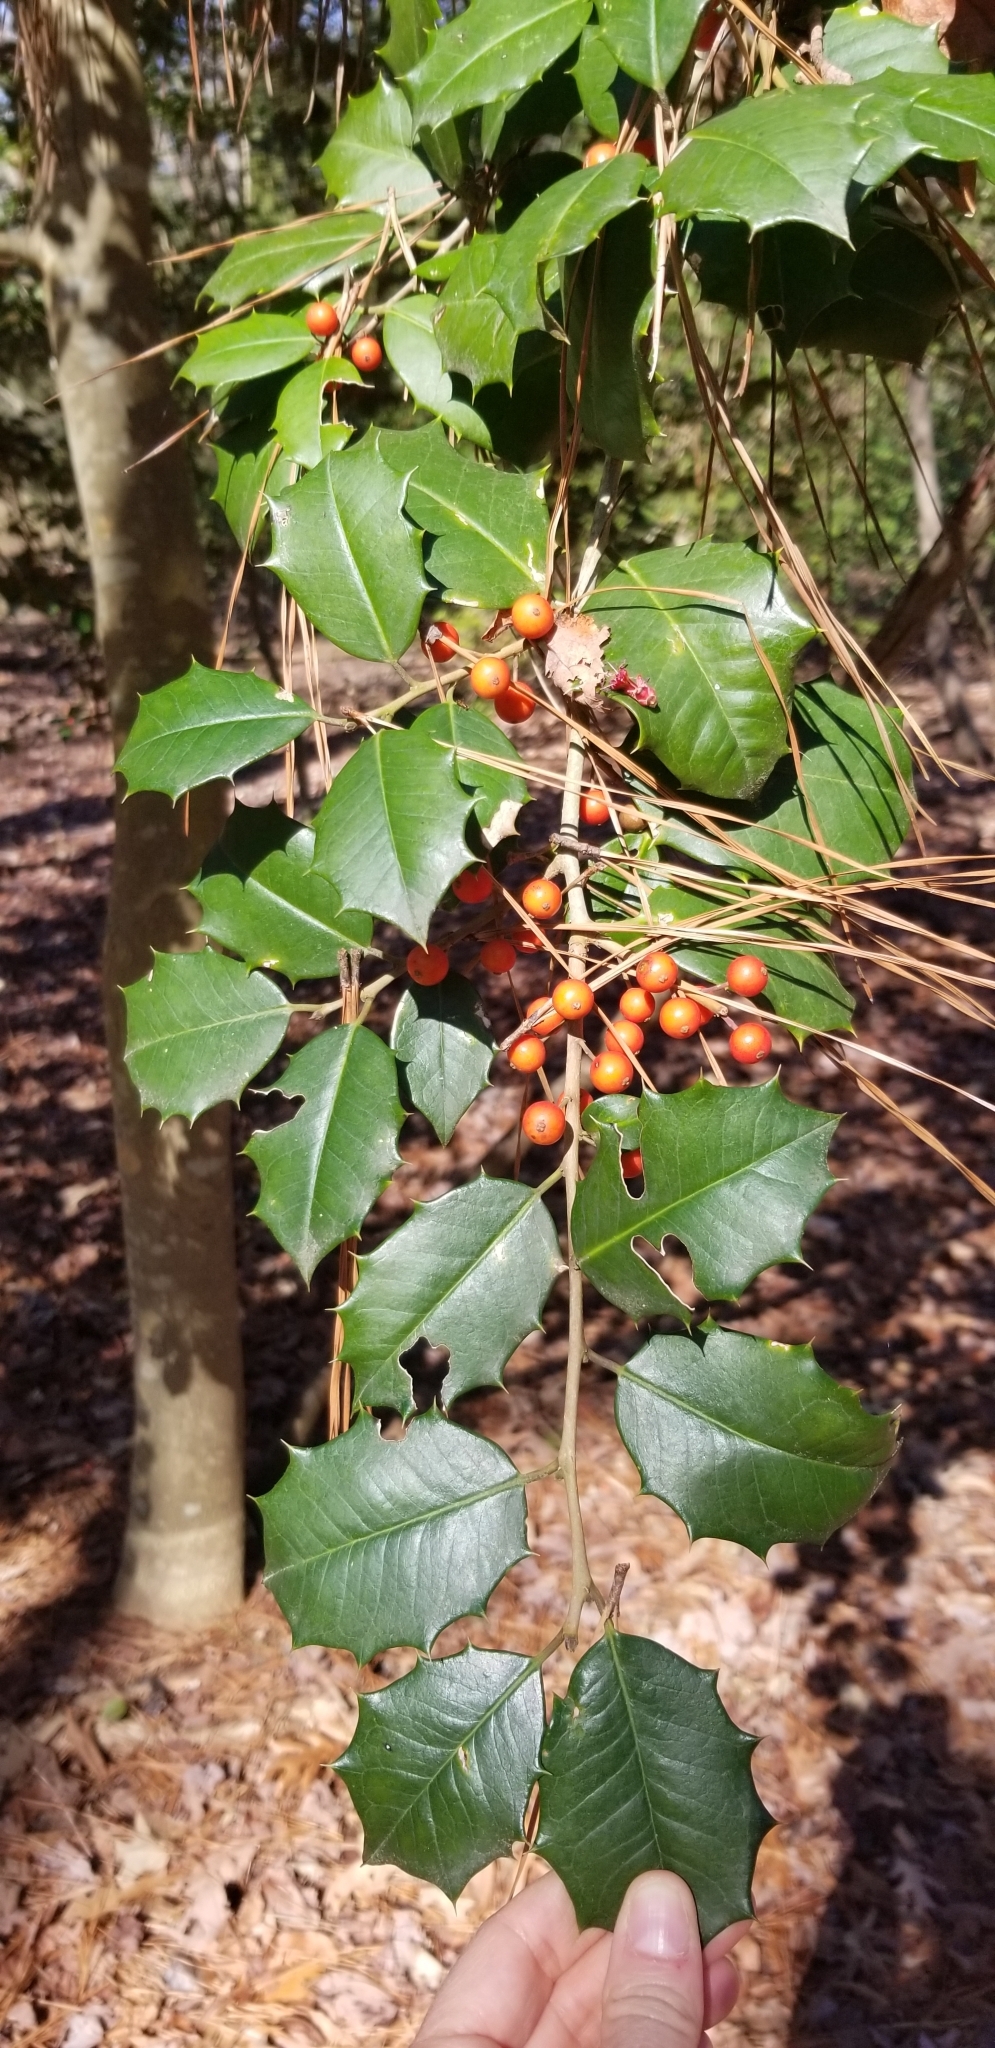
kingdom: Plantae
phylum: Tracheophyta
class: Magnoliopsida
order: Aquifoliales
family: Aquifoliaceae
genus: Ilex
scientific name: Ilex opaca
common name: American holly
